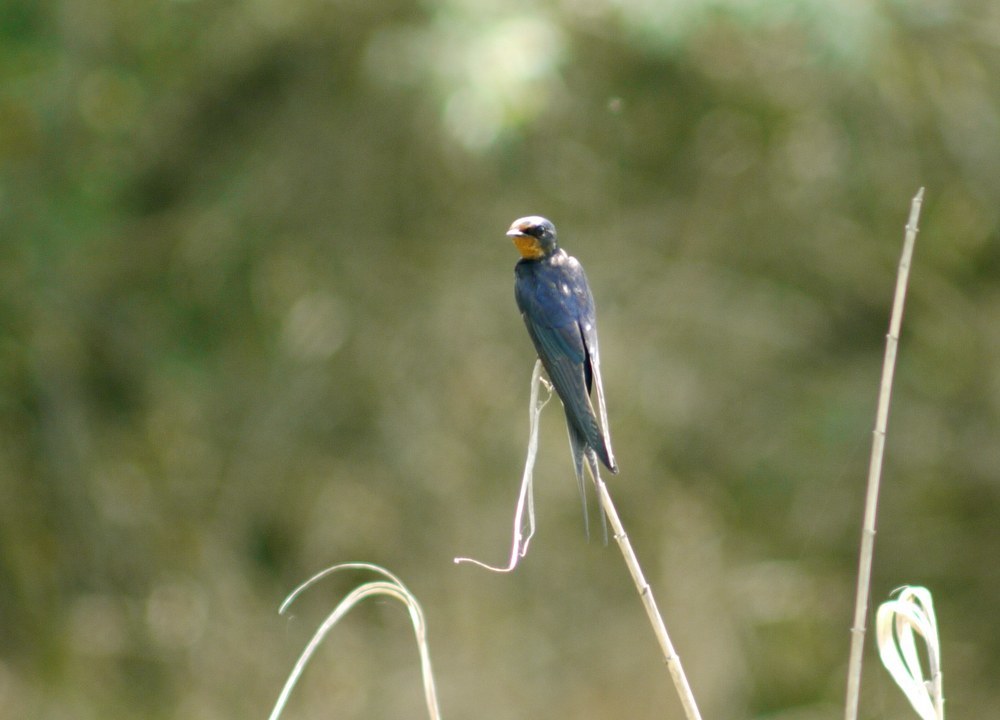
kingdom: Animalia
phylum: Chordata
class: Aves
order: Passeriformes
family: Hirundinidae
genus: Hirundo
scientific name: Hirundo rustica
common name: Barn swallow
